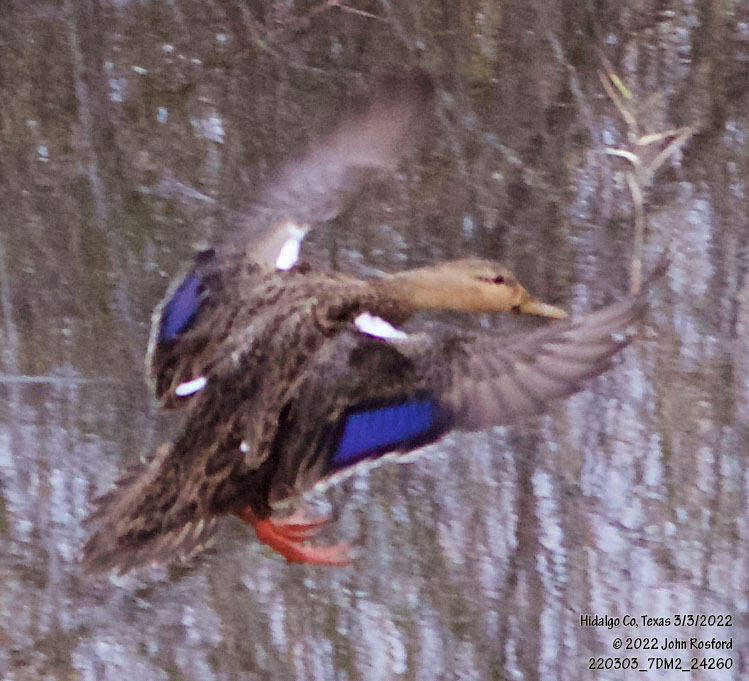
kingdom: Animalia
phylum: Chordata
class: Aves
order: Anseriformes
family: Anatidae
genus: Anas
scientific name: Anas fulvigula
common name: Mottled duck
